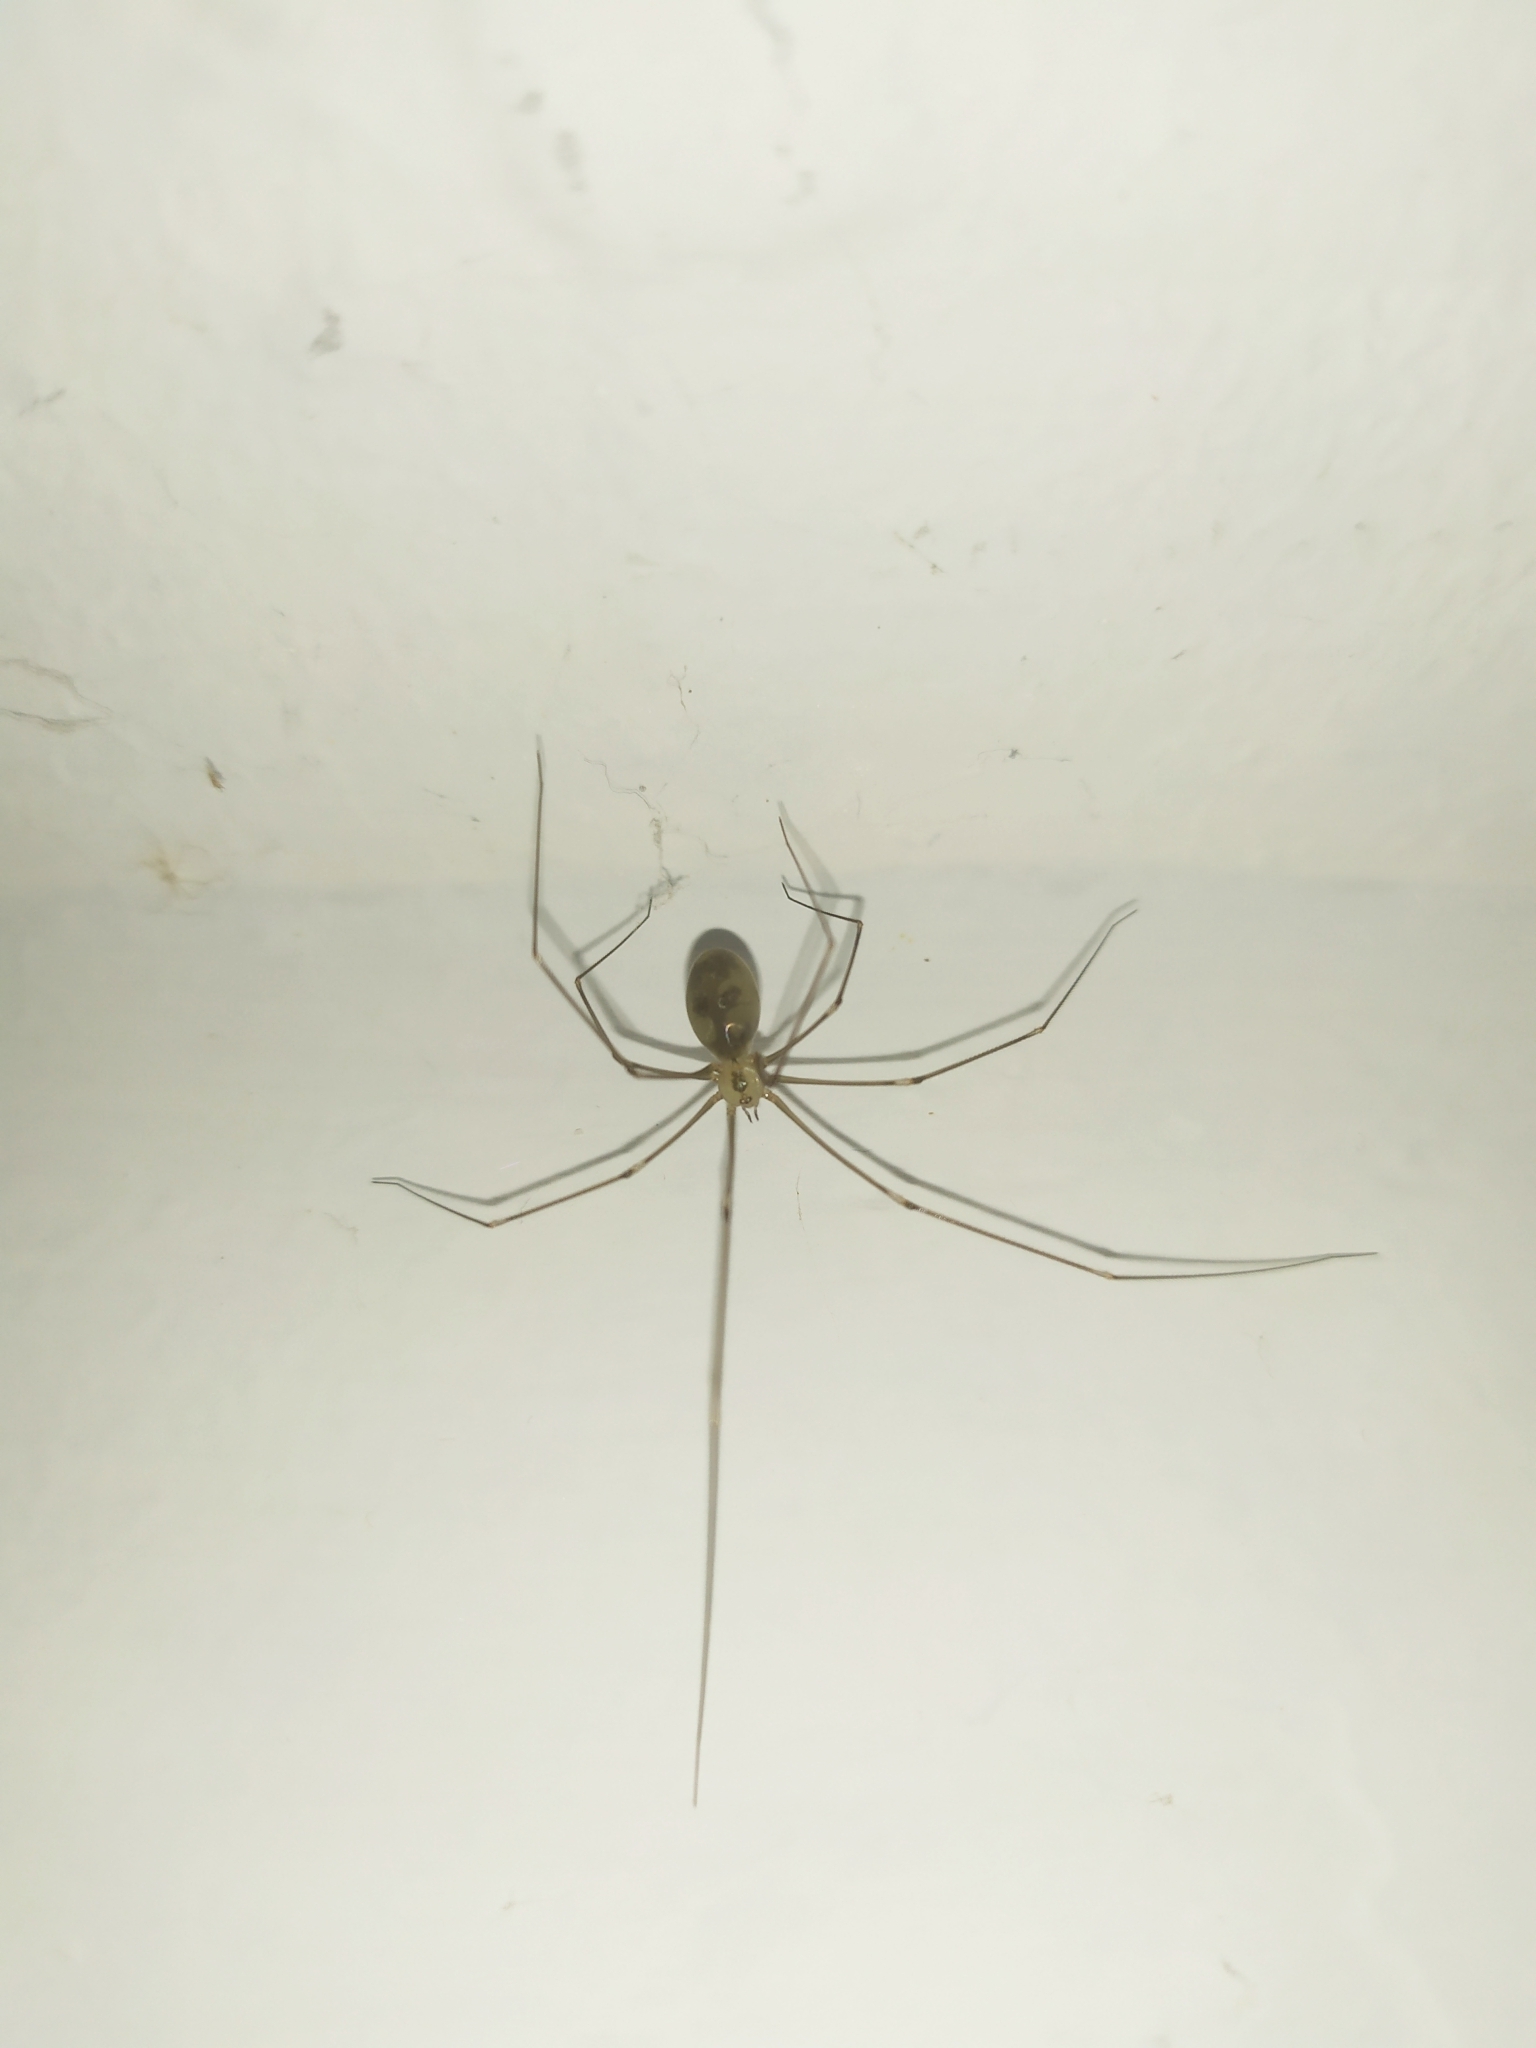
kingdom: Animalia
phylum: Arthropoda
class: Arachnida
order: Araneae
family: Pholcidae
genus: Pholcus
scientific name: Pholcus phalangioides
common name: Longbodied cellar spider
